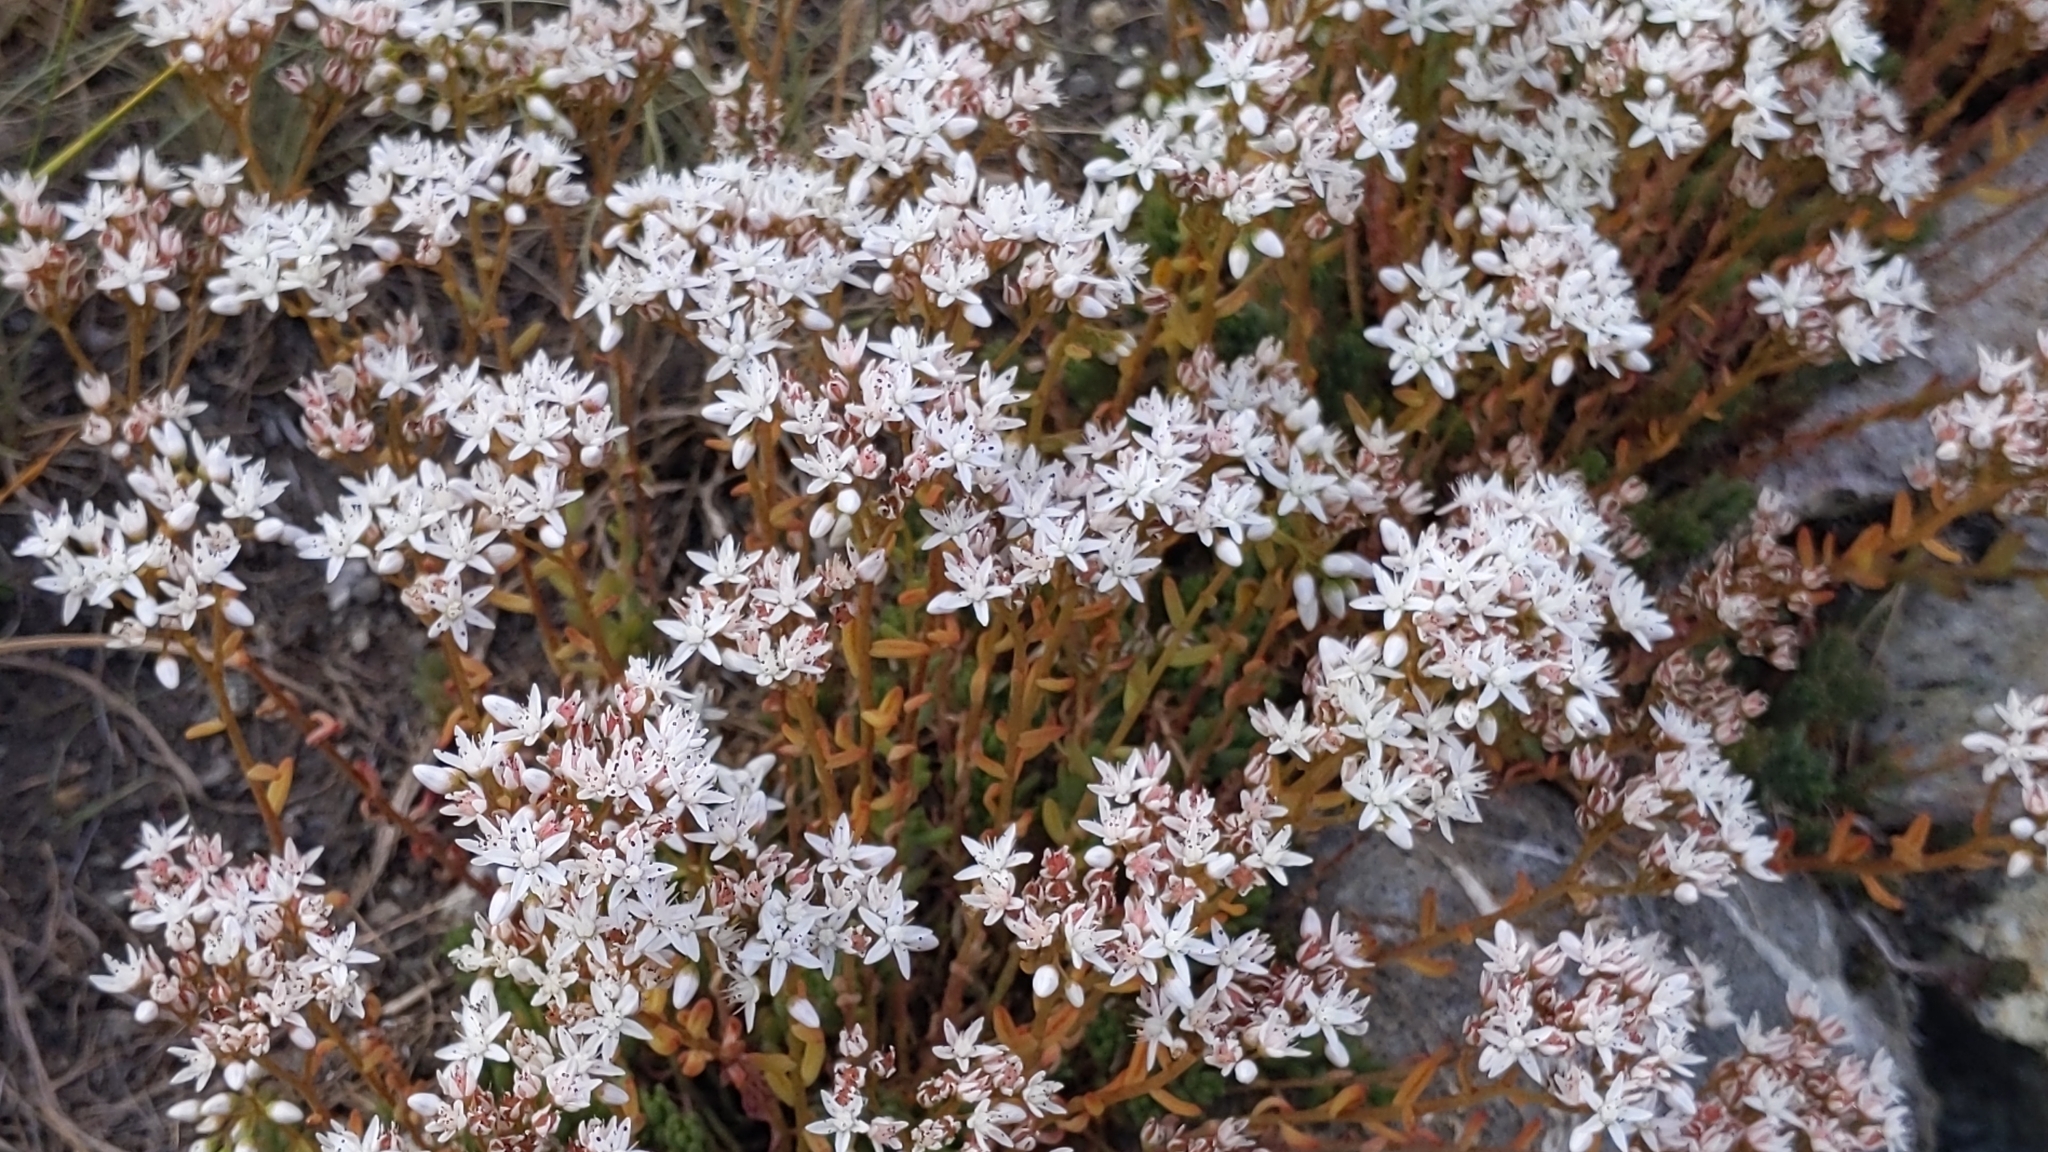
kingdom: Plantae
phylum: Tracheophyta
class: Magnoliopsida
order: Saxifragales
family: Crassulaceae
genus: Sedum
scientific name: Sedum album
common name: White stonecrop
